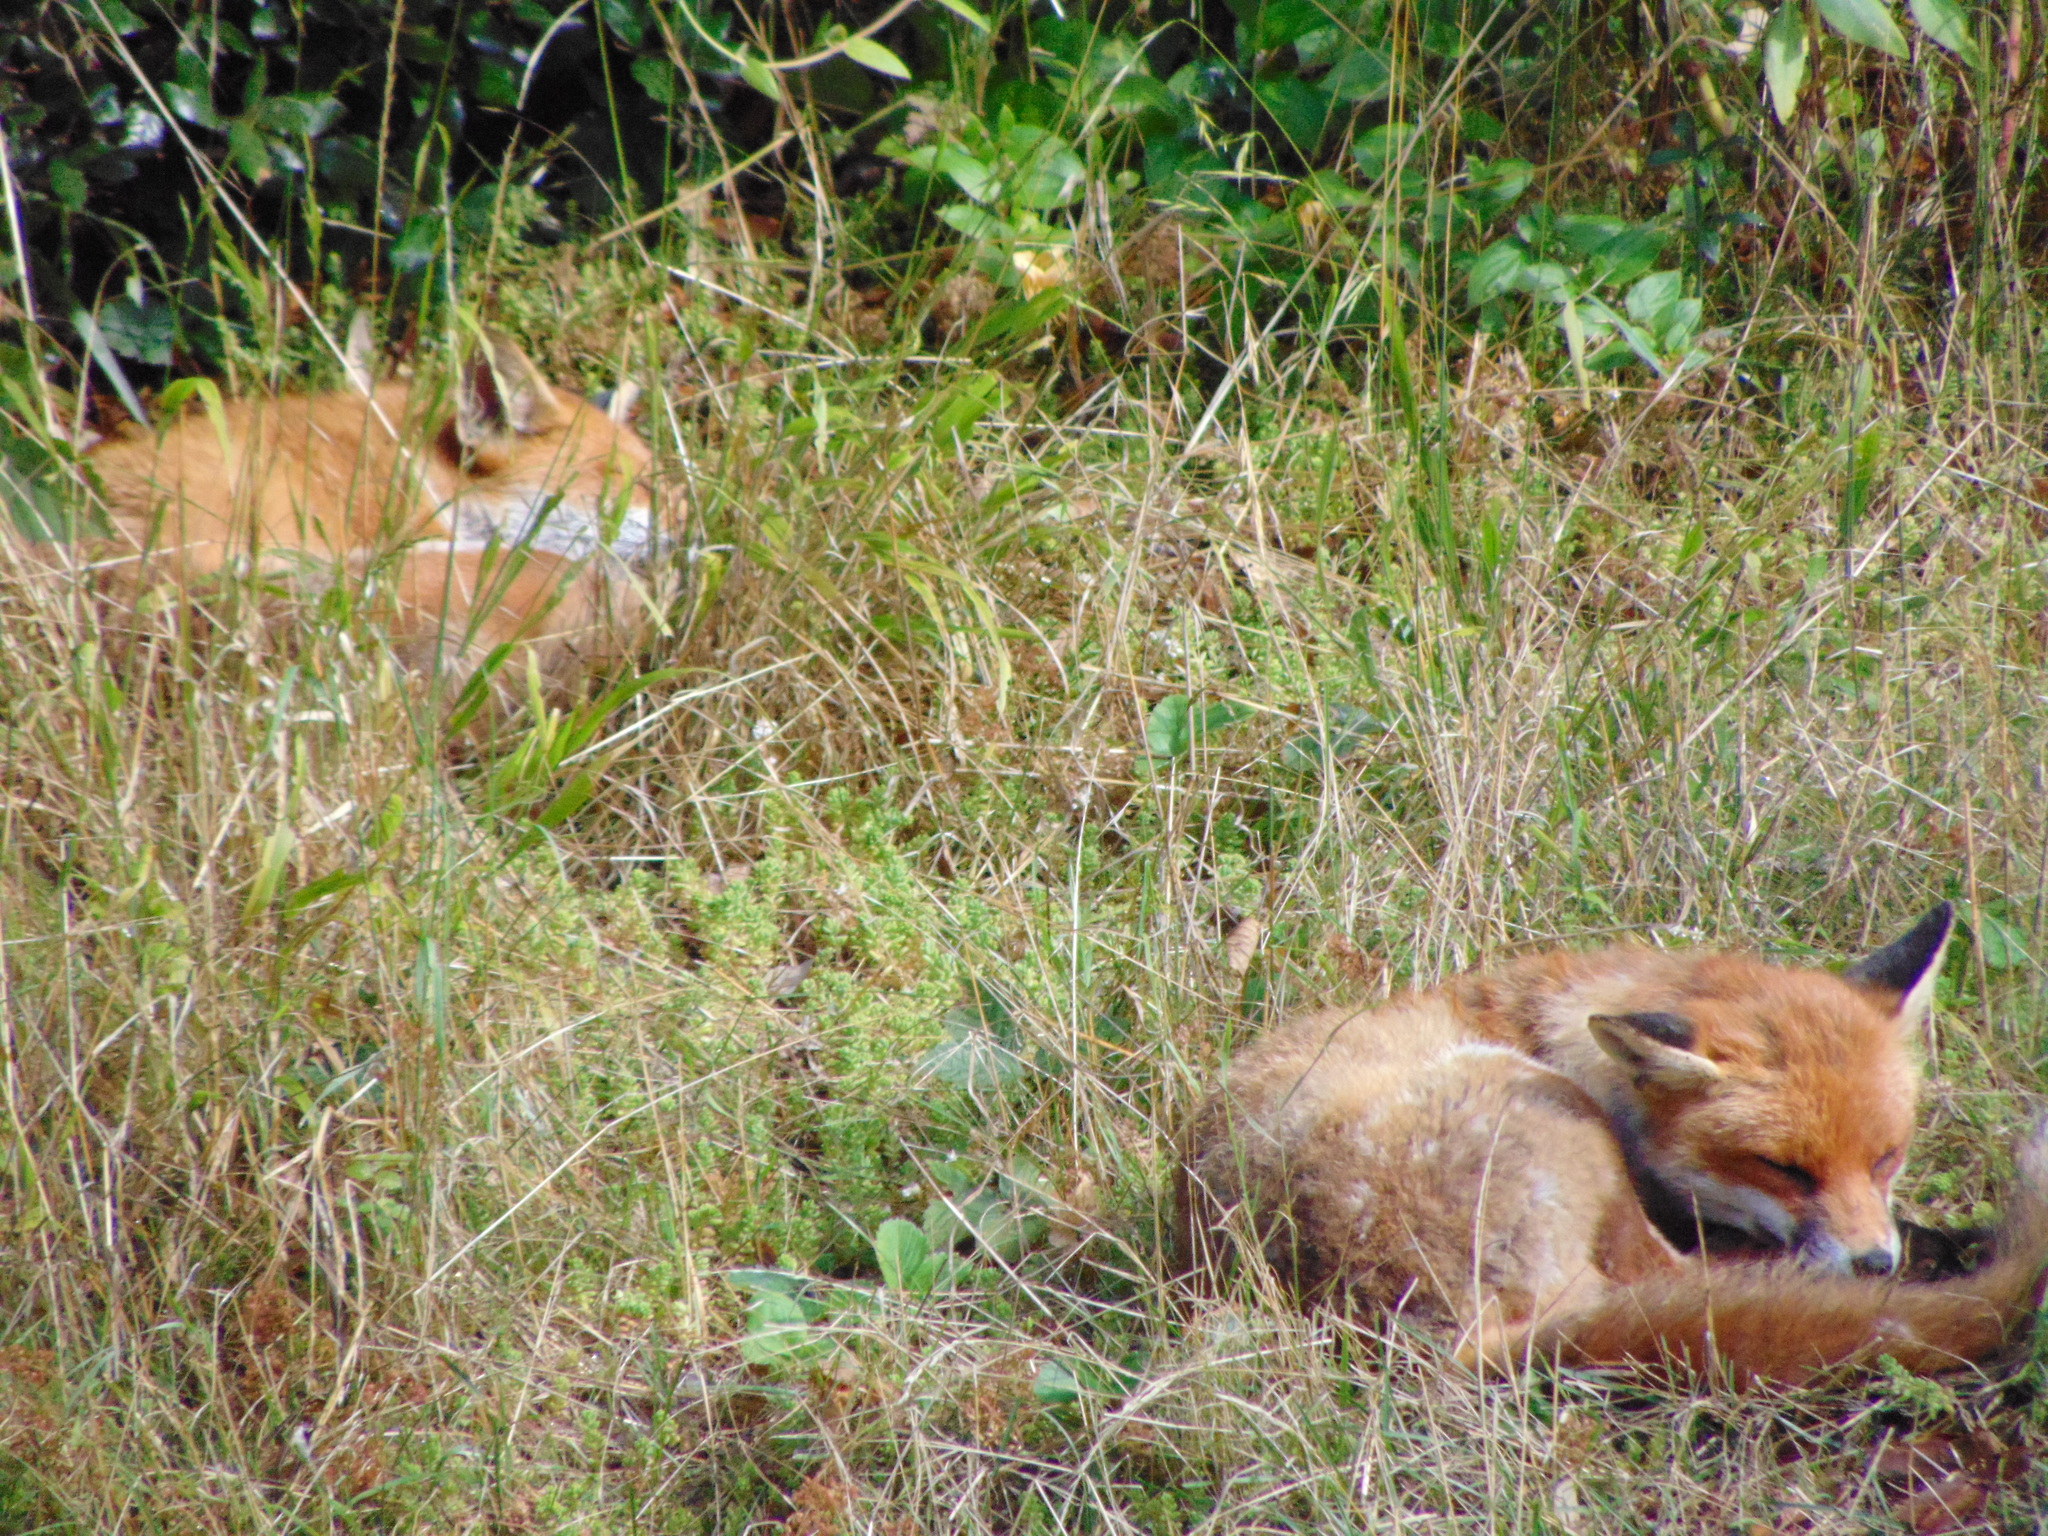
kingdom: Animalia
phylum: Chordata
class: Mammalia
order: Carnivora
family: Canidae
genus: Vulpes
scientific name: Vulpes vulpes
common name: Red fox
